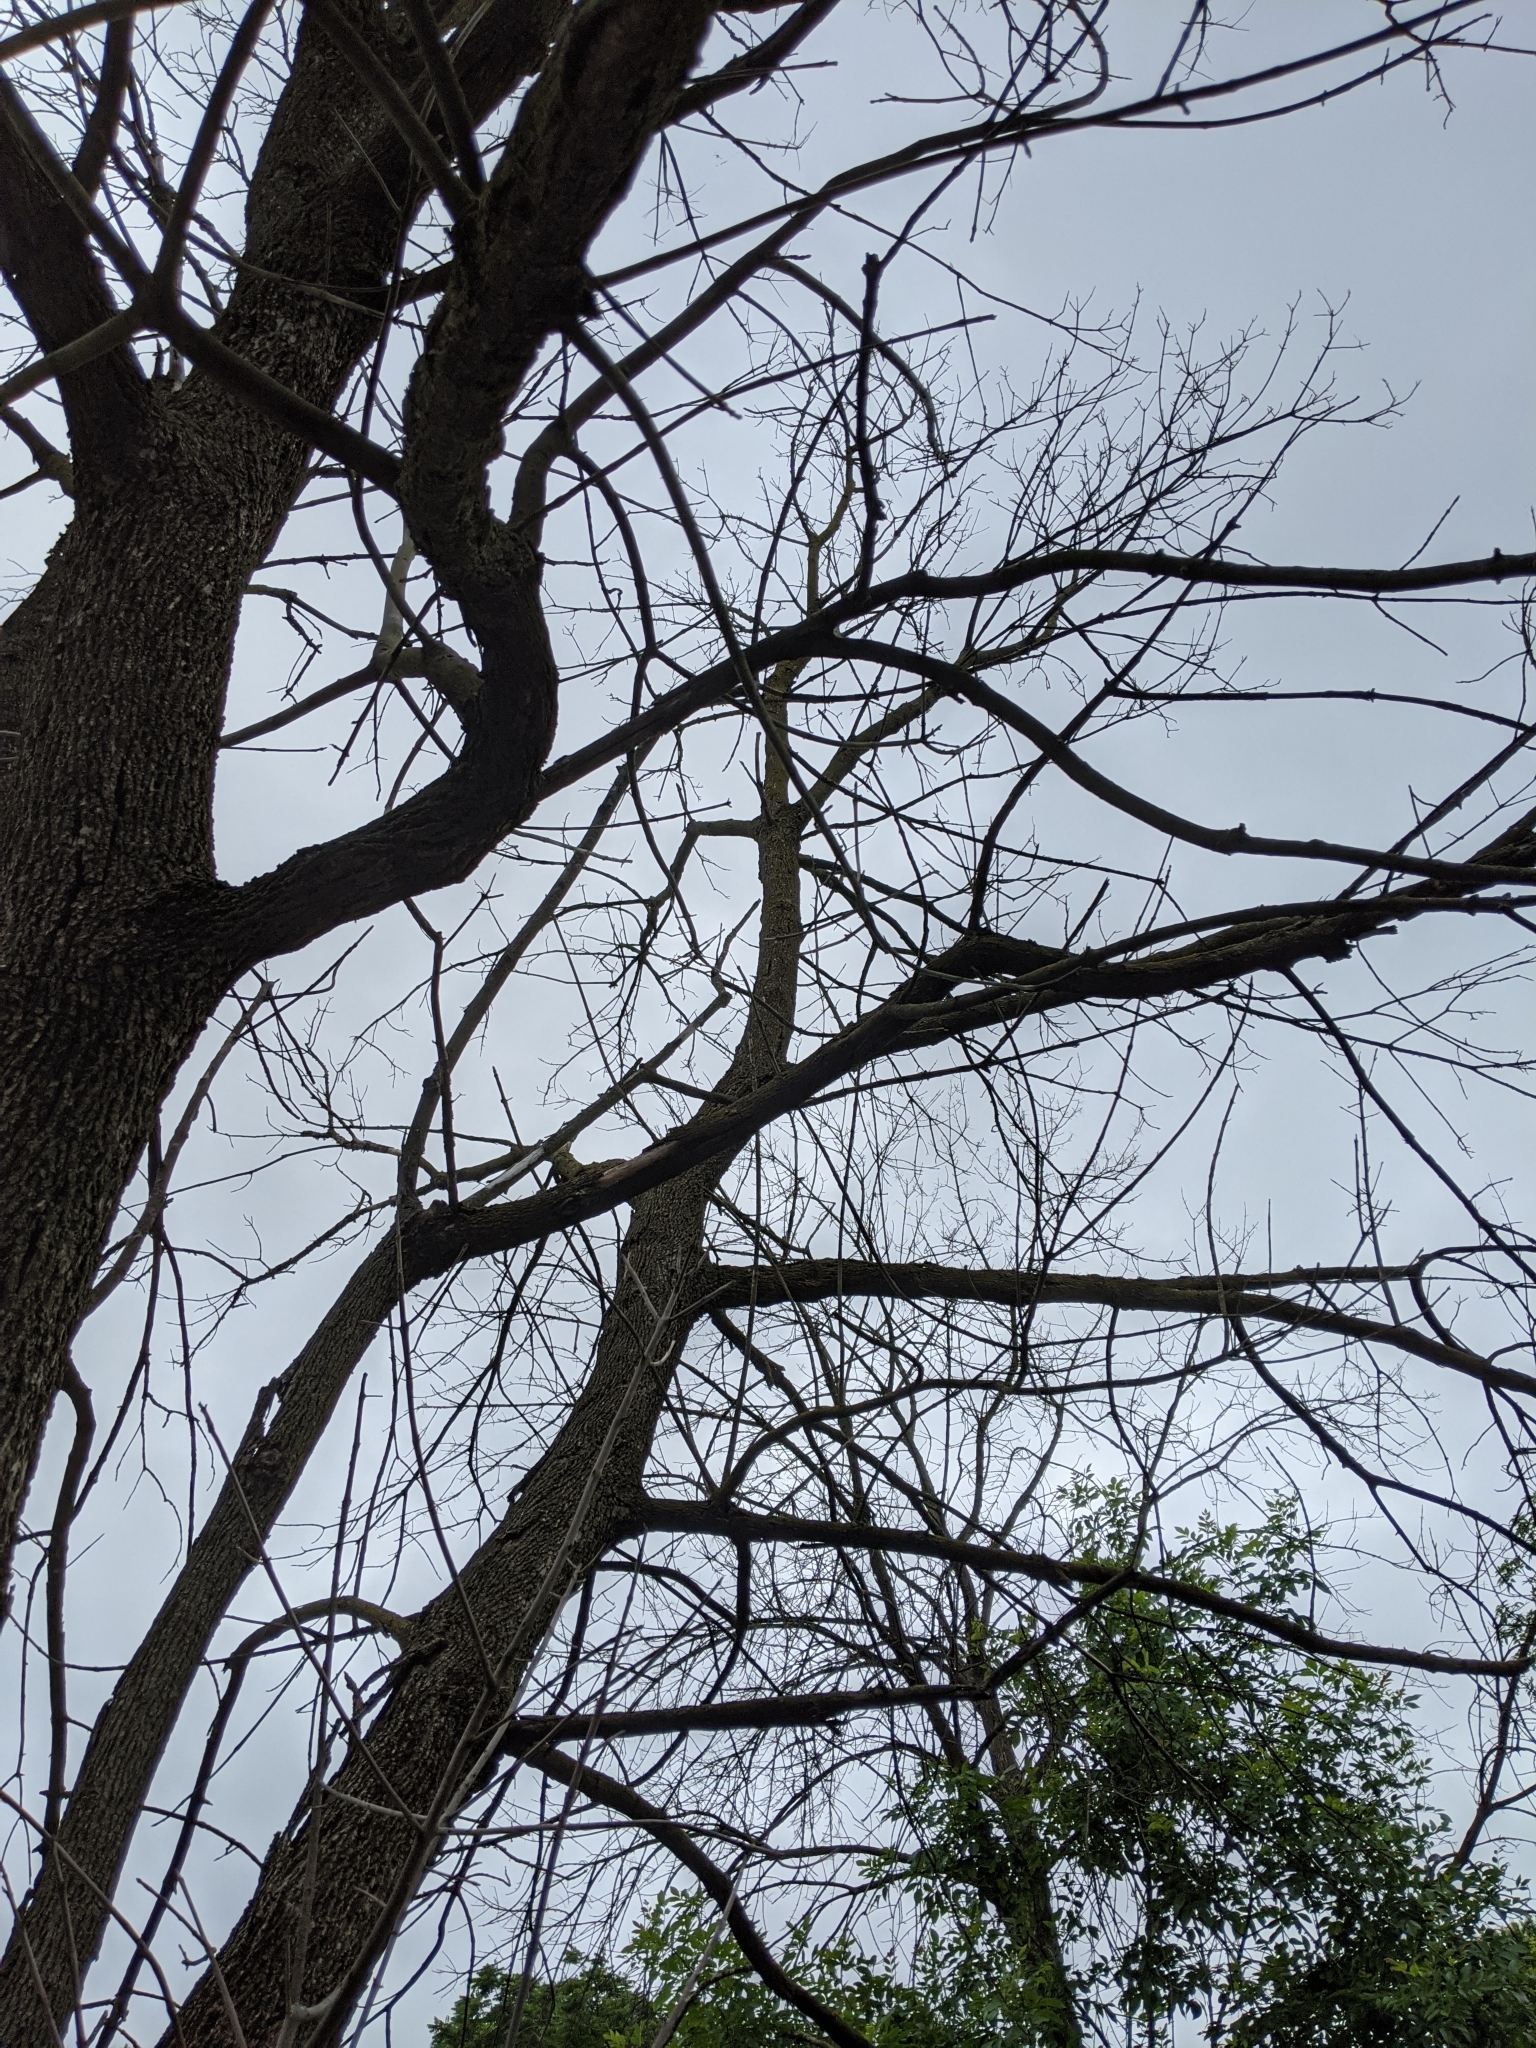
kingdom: Animalia
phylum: Arthropoda
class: Insecta
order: Coleoptera
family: Buprestidae
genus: Agrilus
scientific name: Agrilus planipennis
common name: Emerald ash borer
